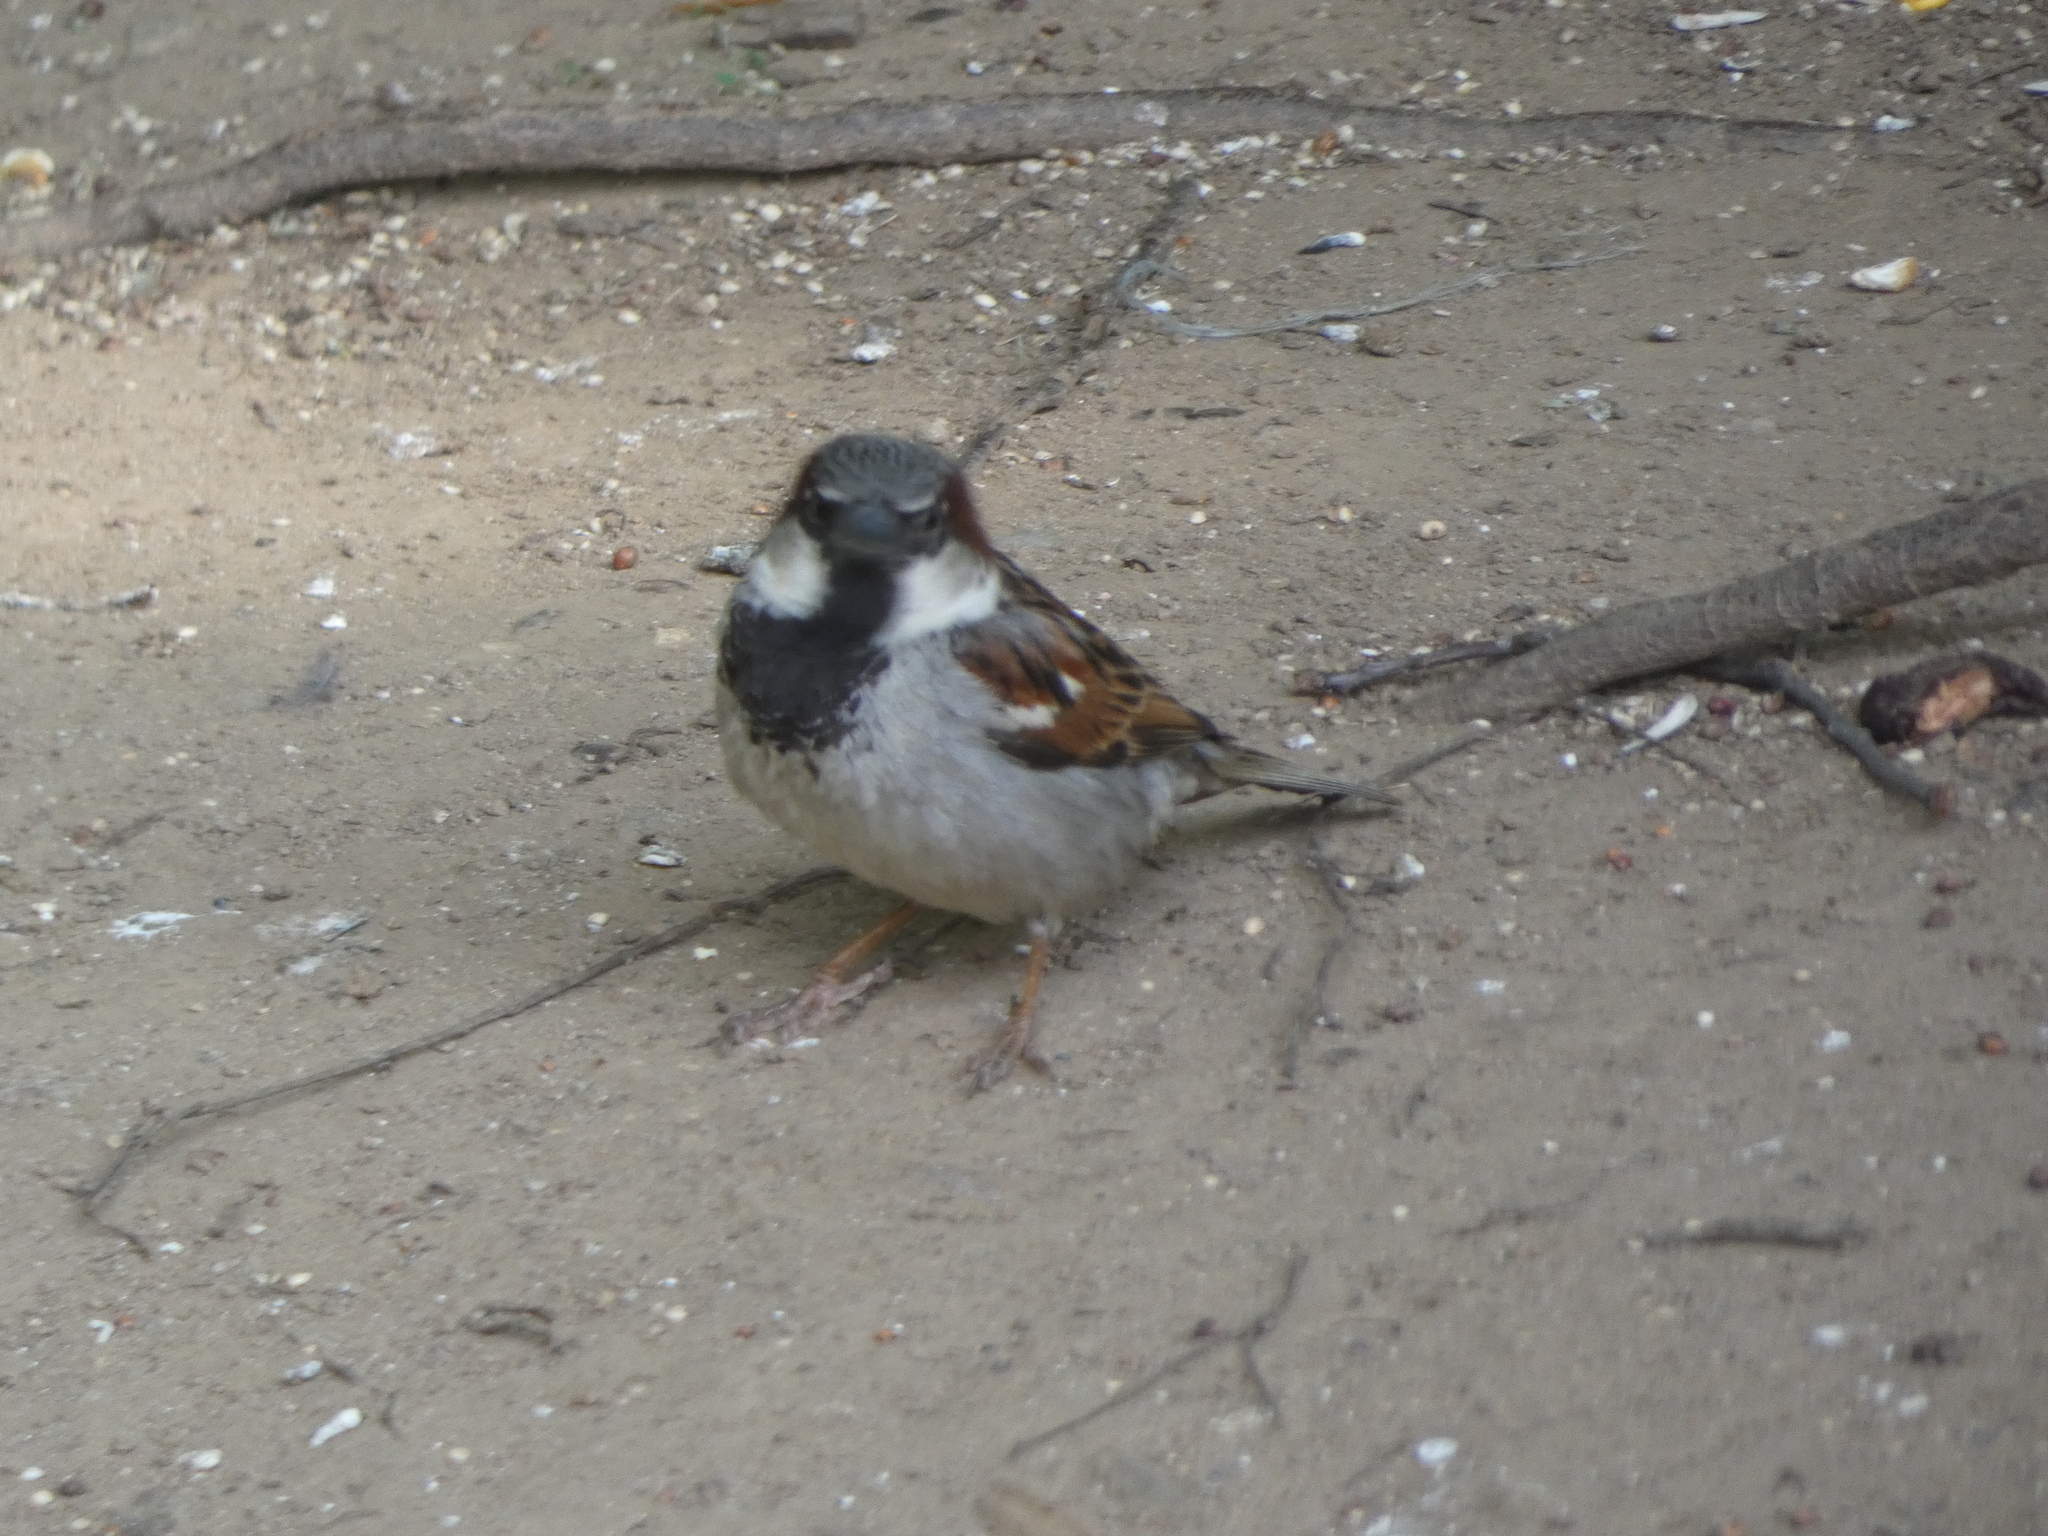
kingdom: Animalia
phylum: Chordata
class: Aves
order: Passeriformes
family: Passeridae
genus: Passer
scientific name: Passer domesticus
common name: House sparrow
